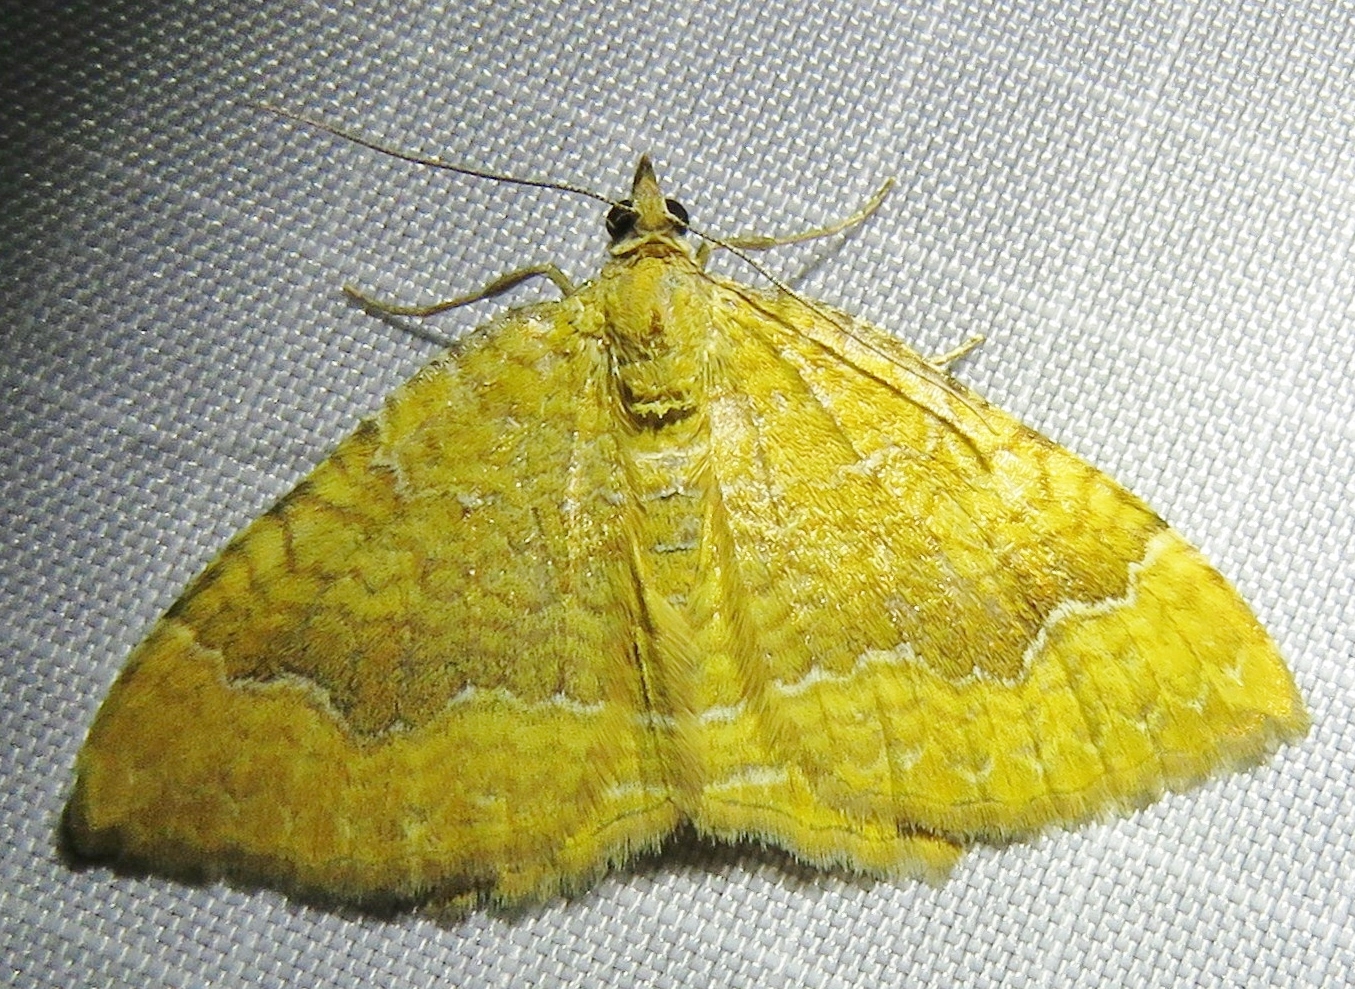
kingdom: Animalia
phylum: Arthropoda
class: Insecta
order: Lepidoptera
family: Geometridae
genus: Camptogramma
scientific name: Camptogramma bilineata
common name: Yellow shell
